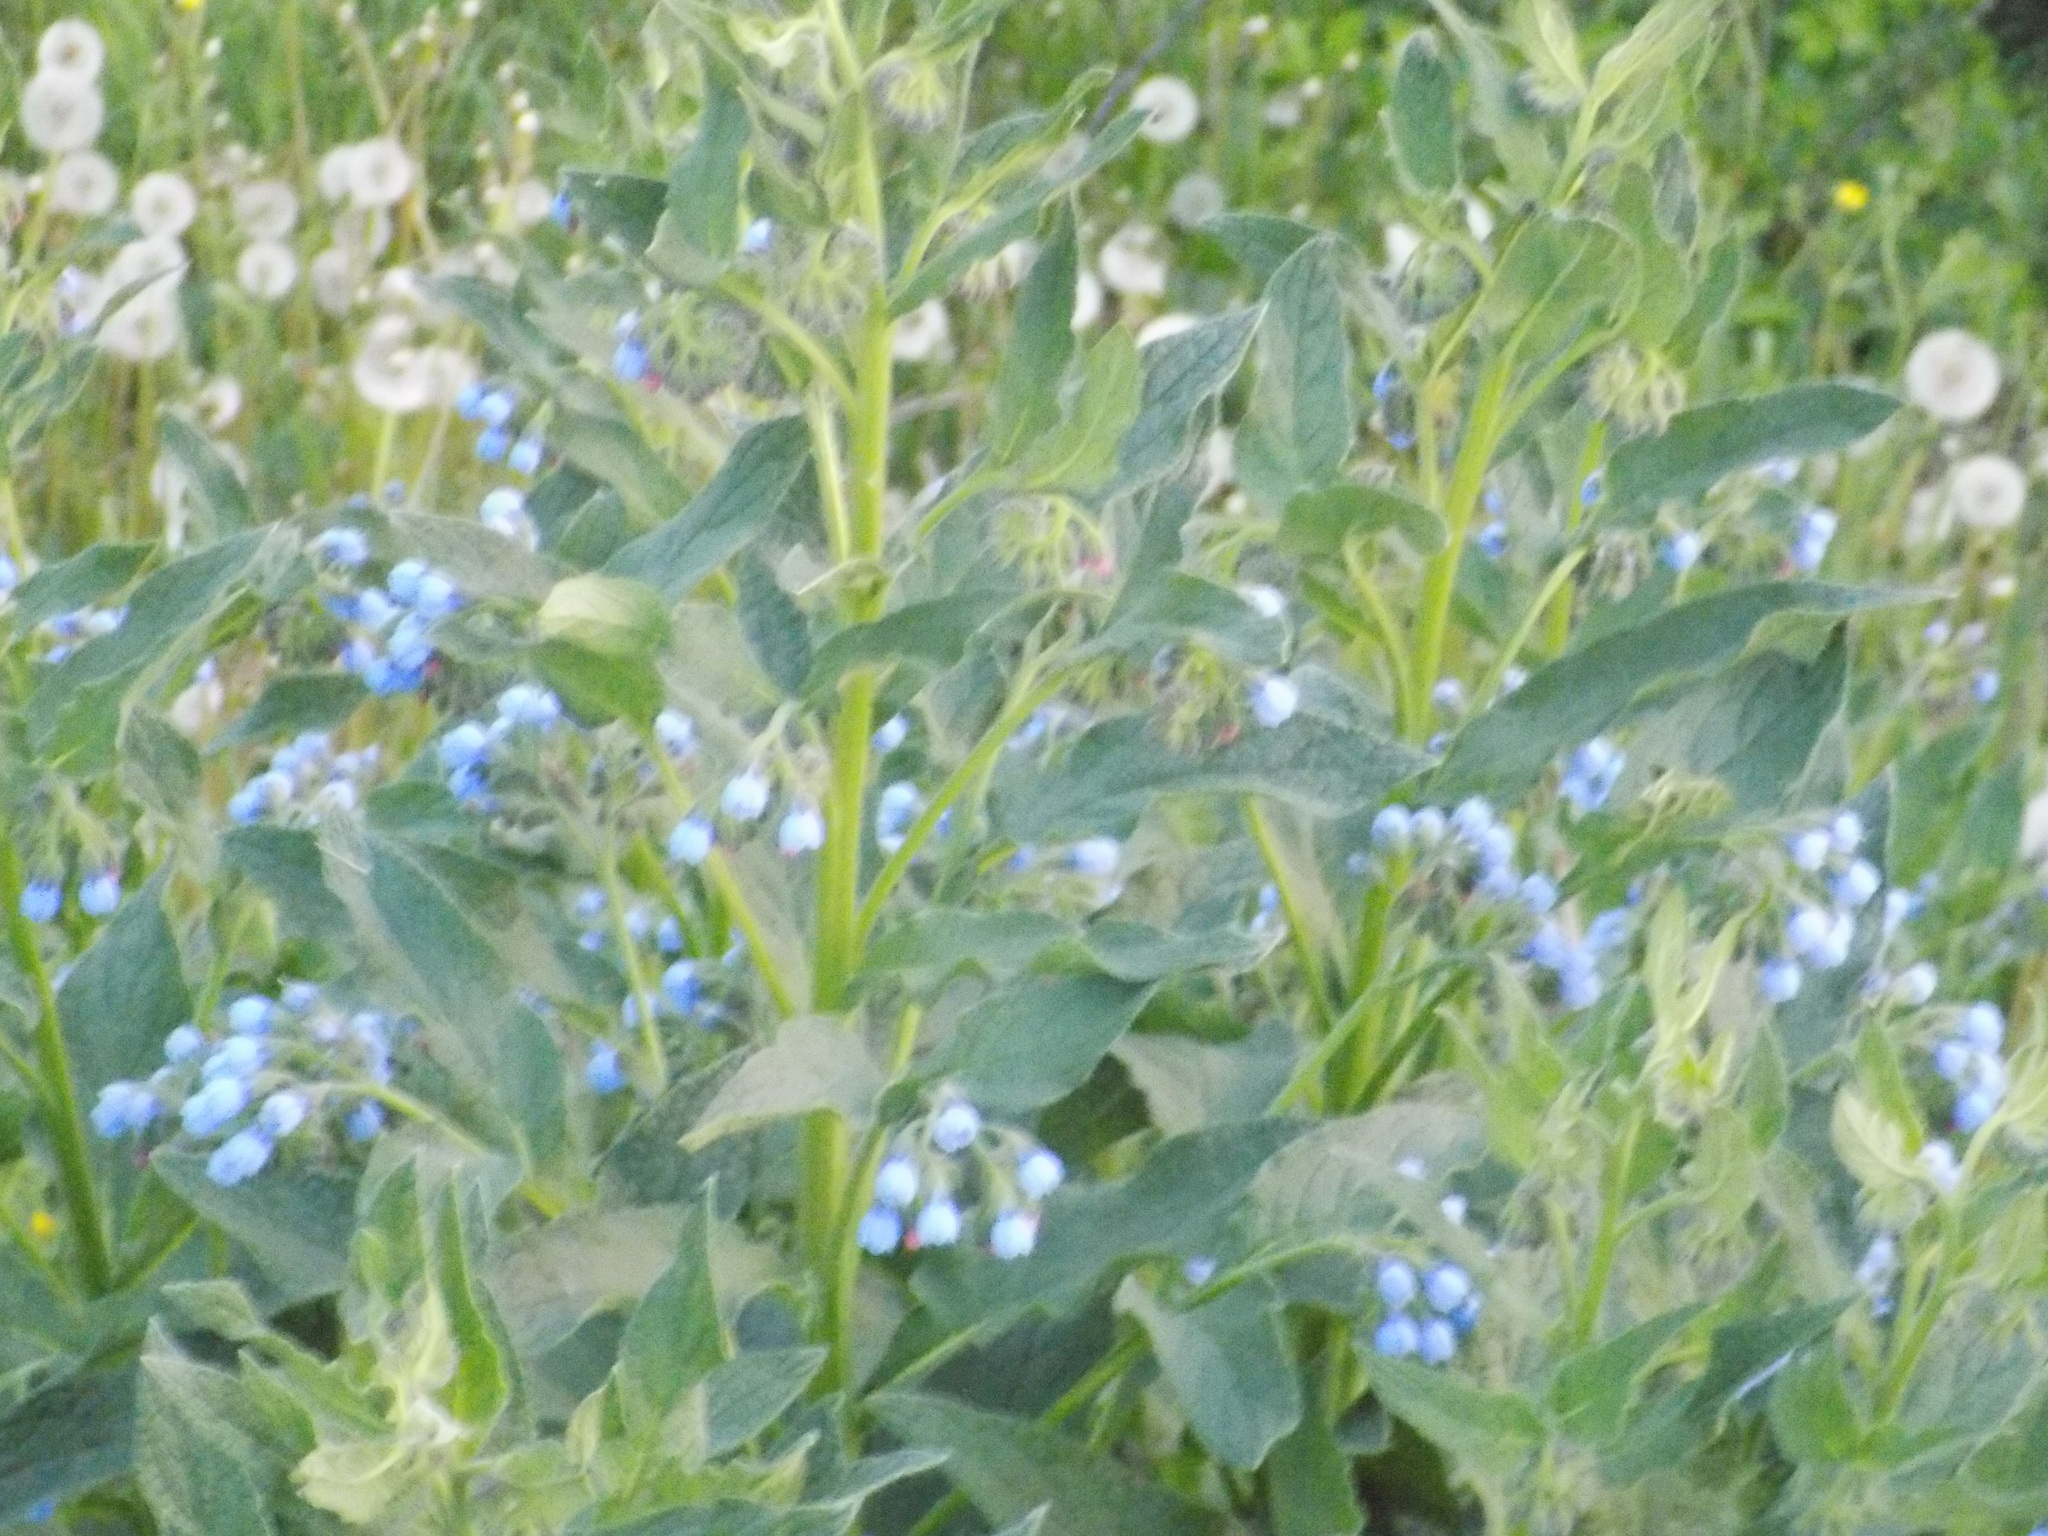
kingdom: Plantae
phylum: Tracheophyta
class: Magnoliopsida
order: Boraginales
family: Boraginaceae
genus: Symphytum
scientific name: Symphytum caucasicum
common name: Caucasian comfrey
